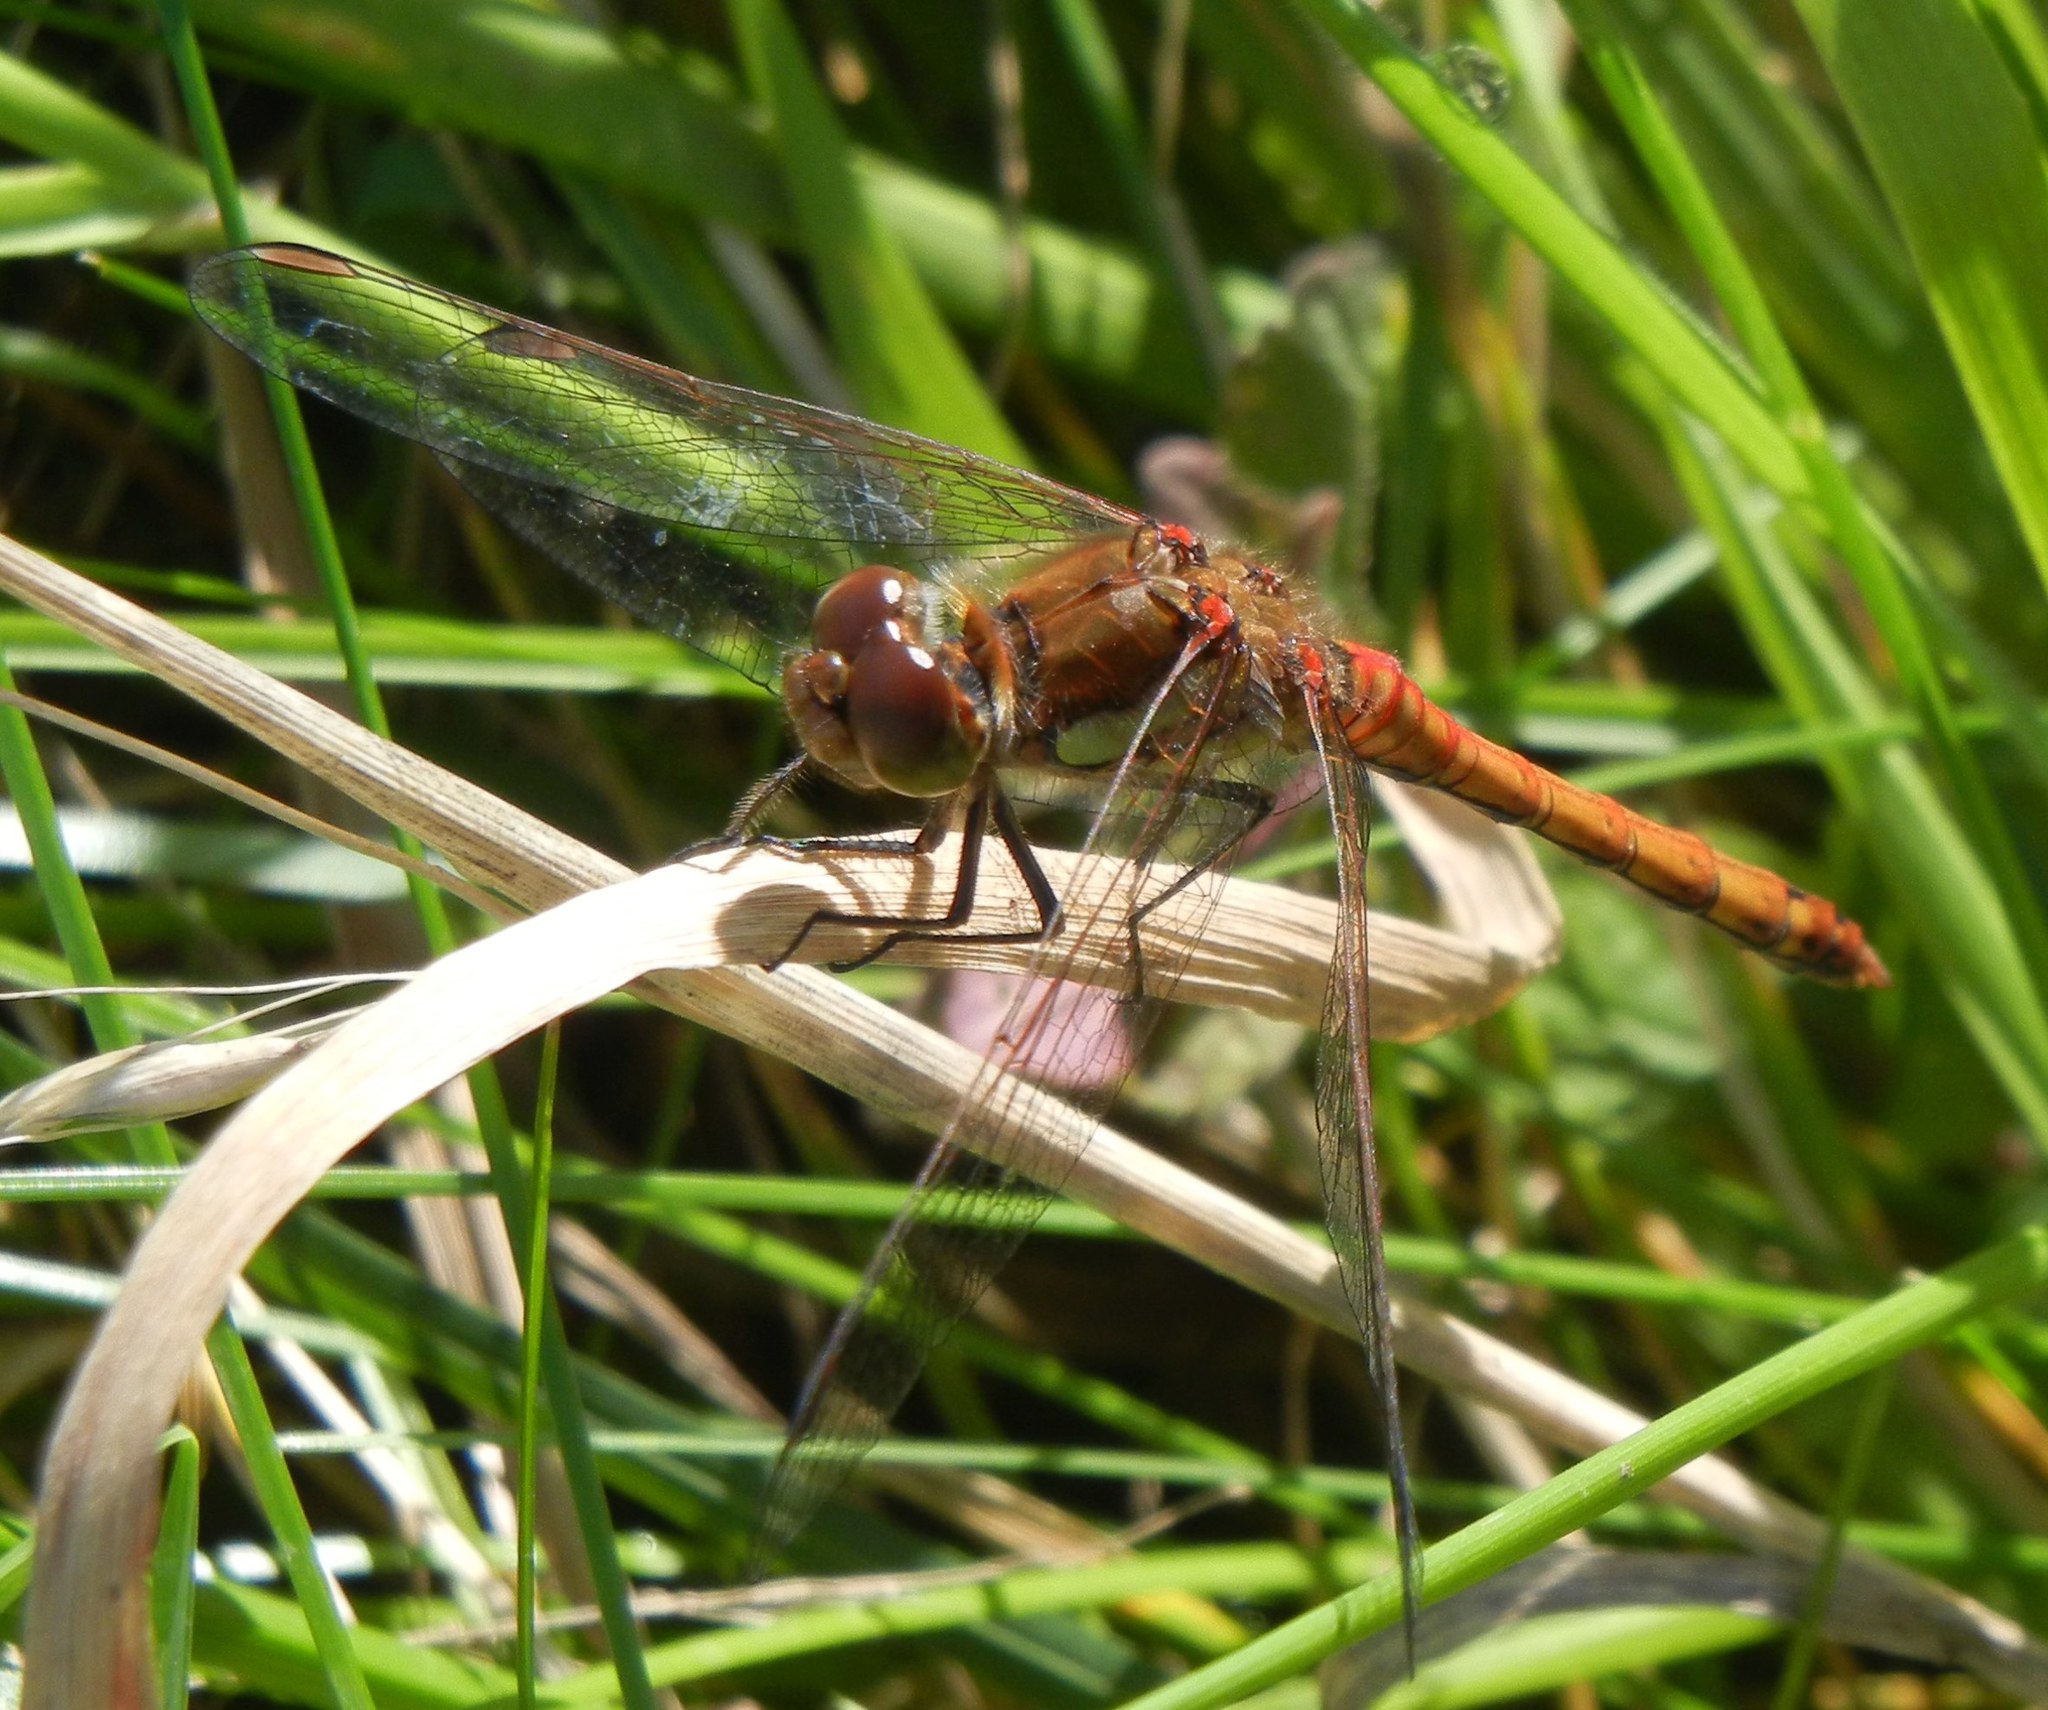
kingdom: Animalia
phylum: Arthropoda
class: Insecta
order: Odonata
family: Libellulidae
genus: Sympetrum
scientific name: Sympetrum striolatum
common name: Common darter
